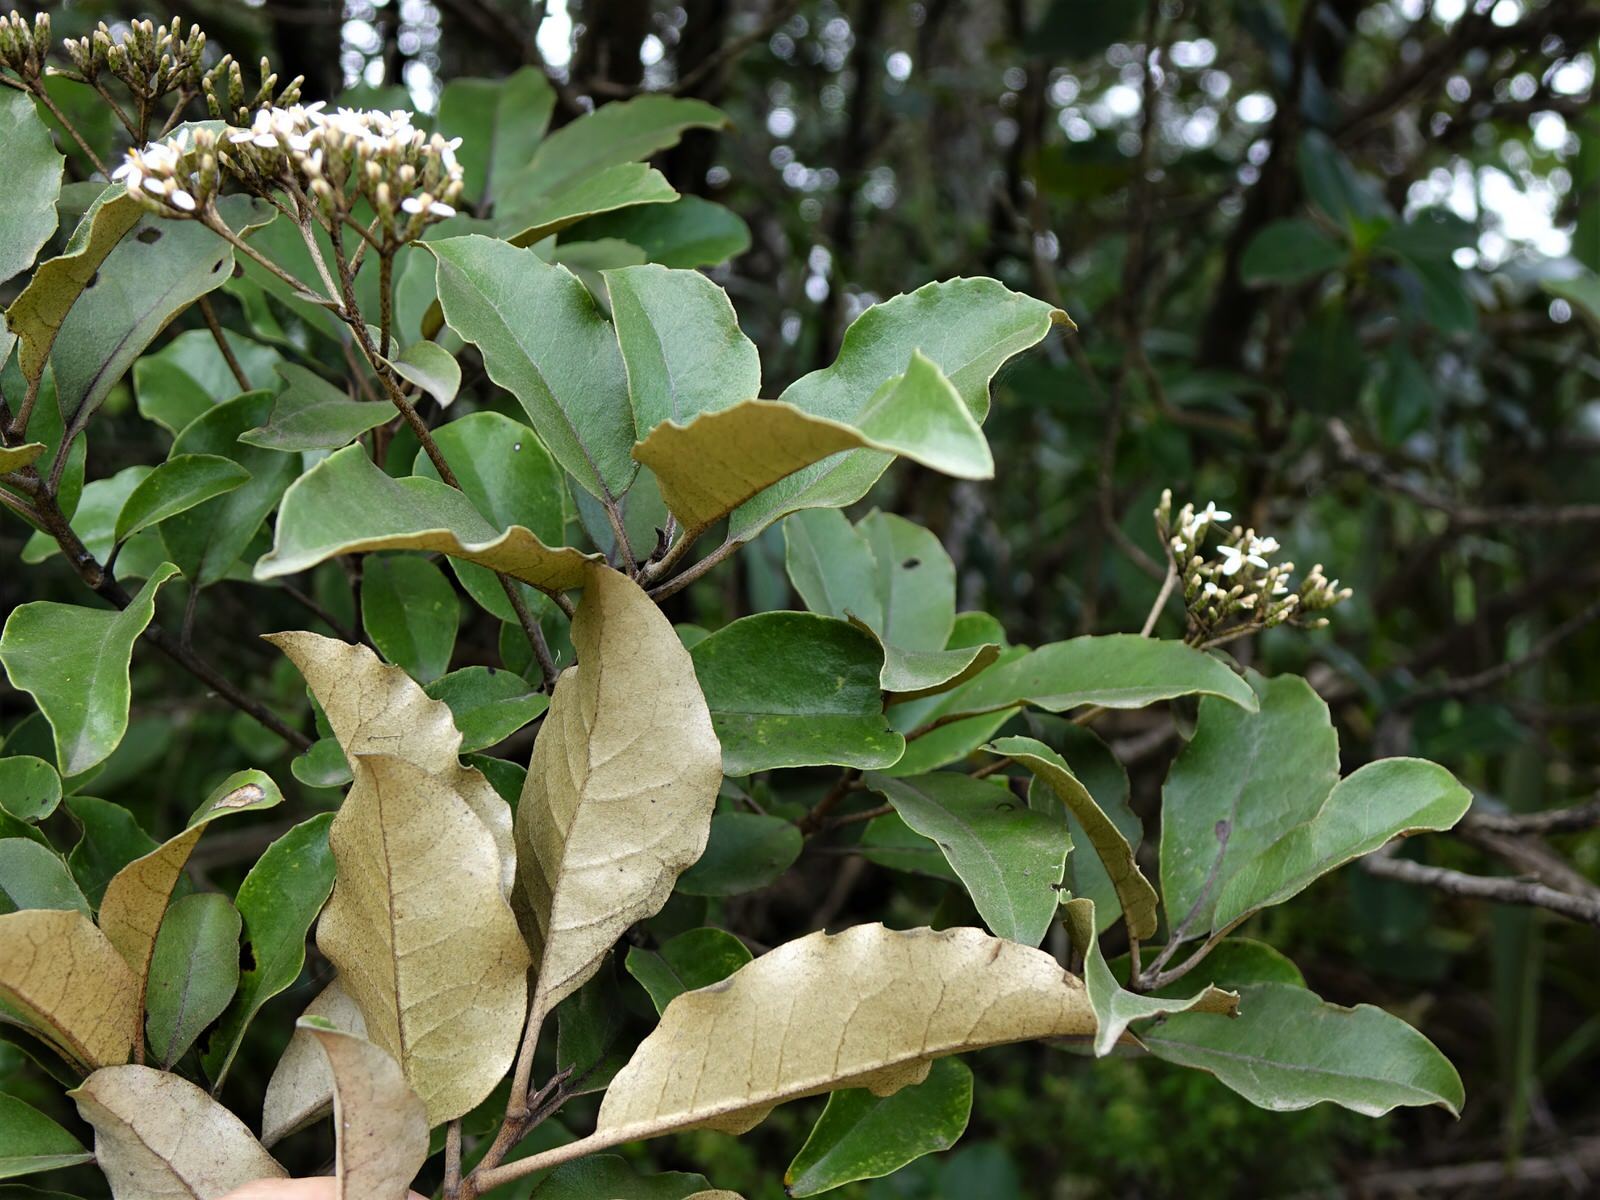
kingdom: Plantae
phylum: Tracheophyta
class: Magnoliopsida
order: Asterales
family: Asteraceae
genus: Olearia
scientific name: Olearia furfuracea
